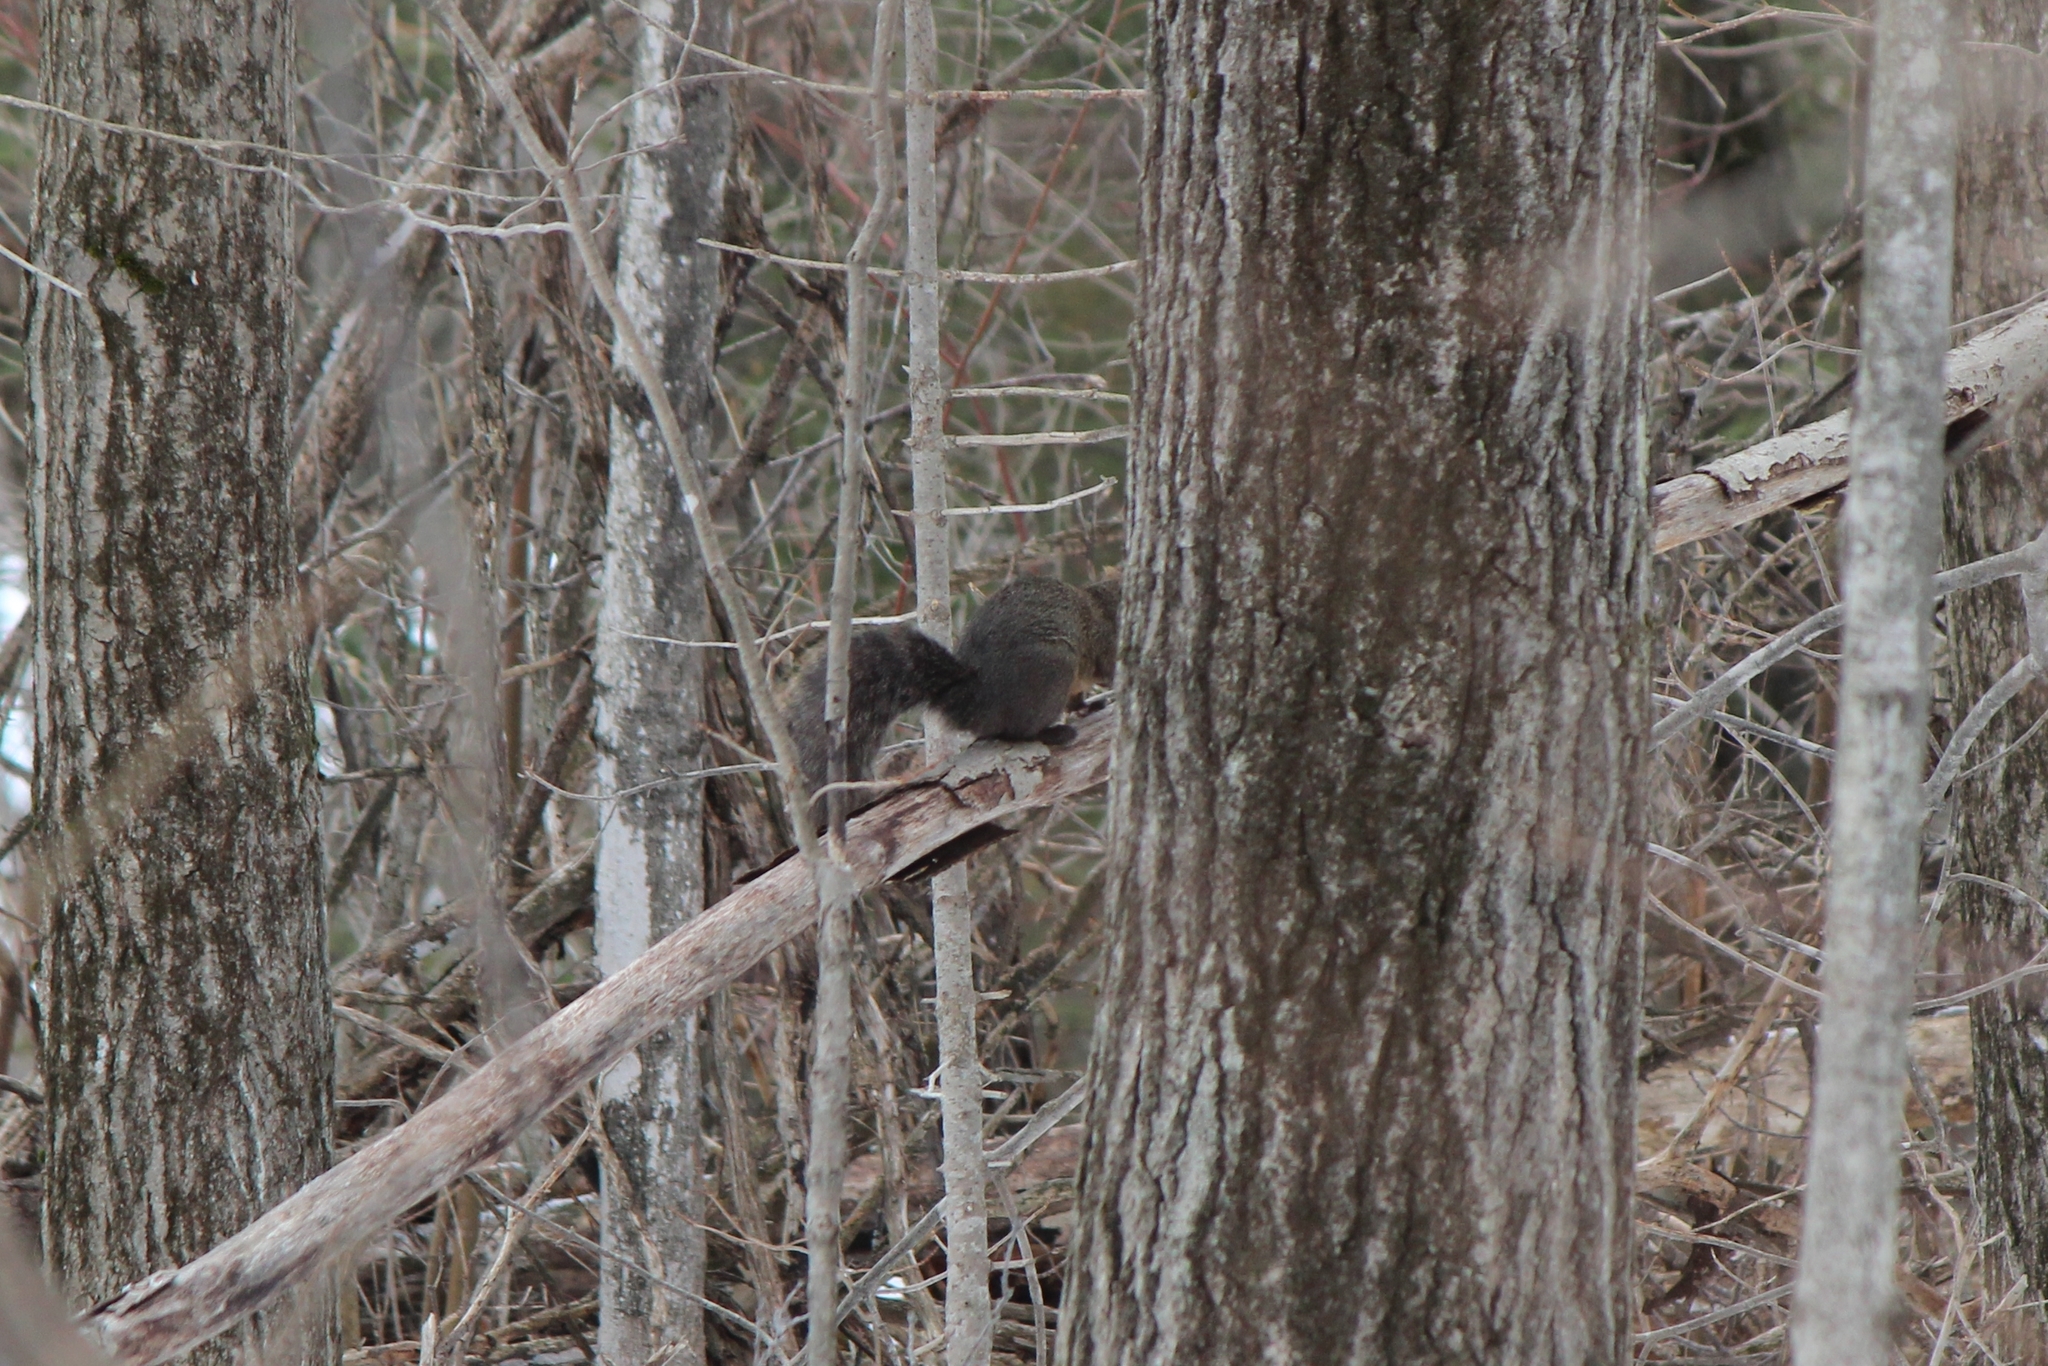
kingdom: Animalia
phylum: Chordata
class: Mammalia
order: Rodentia
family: Sciuridae
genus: Sciurus
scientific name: Sciurus carolinensis
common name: Eastern gray squirrel
